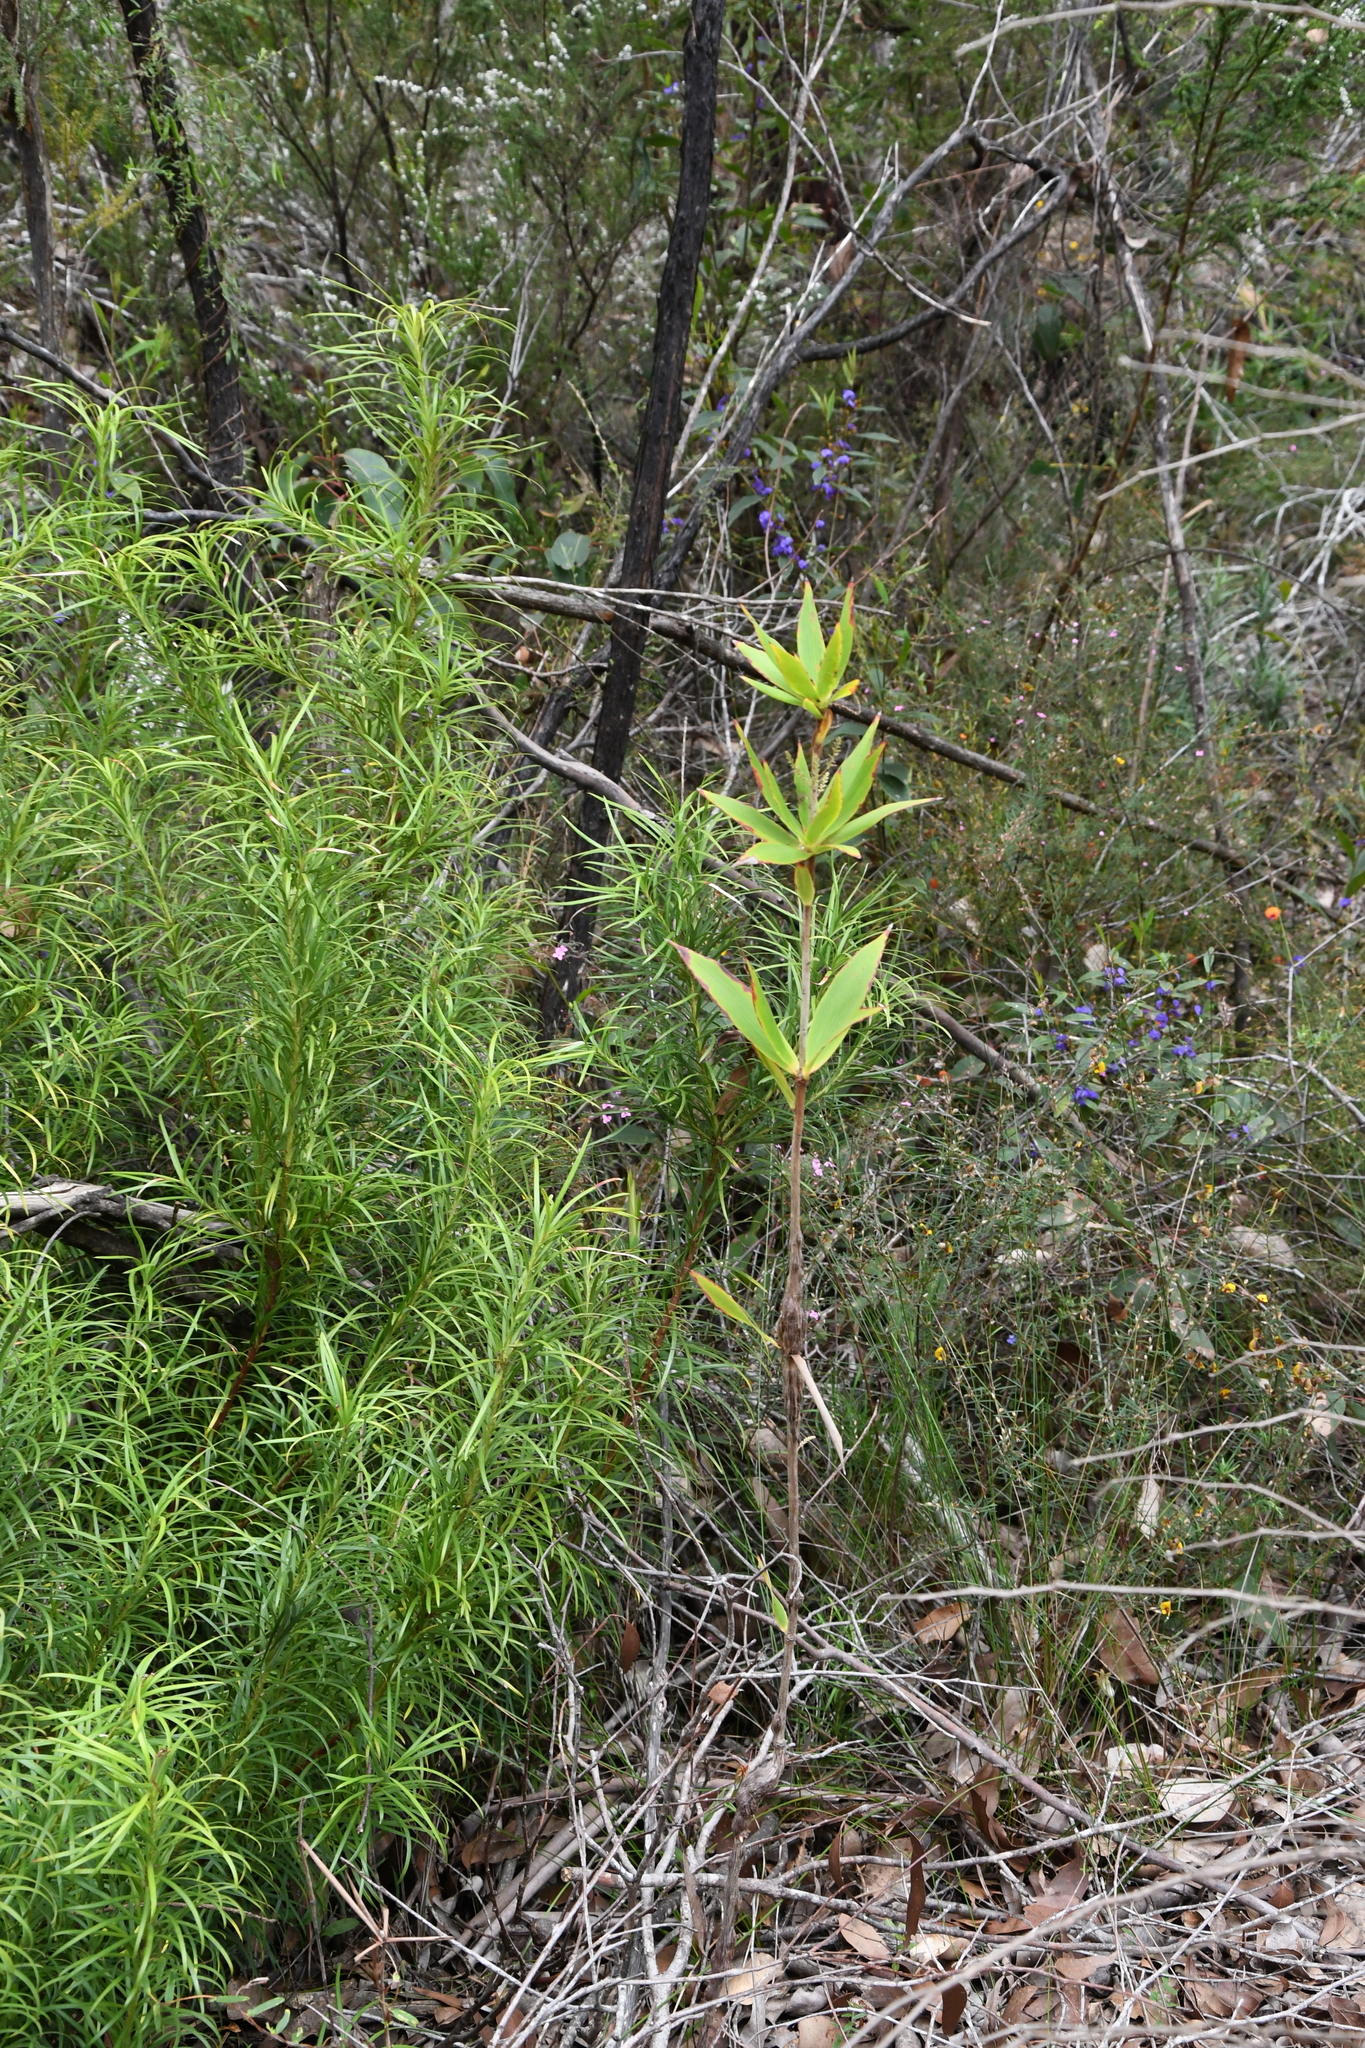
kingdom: Plantae
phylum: Tracheophyta
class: Magnoliopsida
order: Ericales
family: Ericaceae
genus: Leucopogon
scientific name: Leucopogon verticillatus
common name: Tasselshrub
